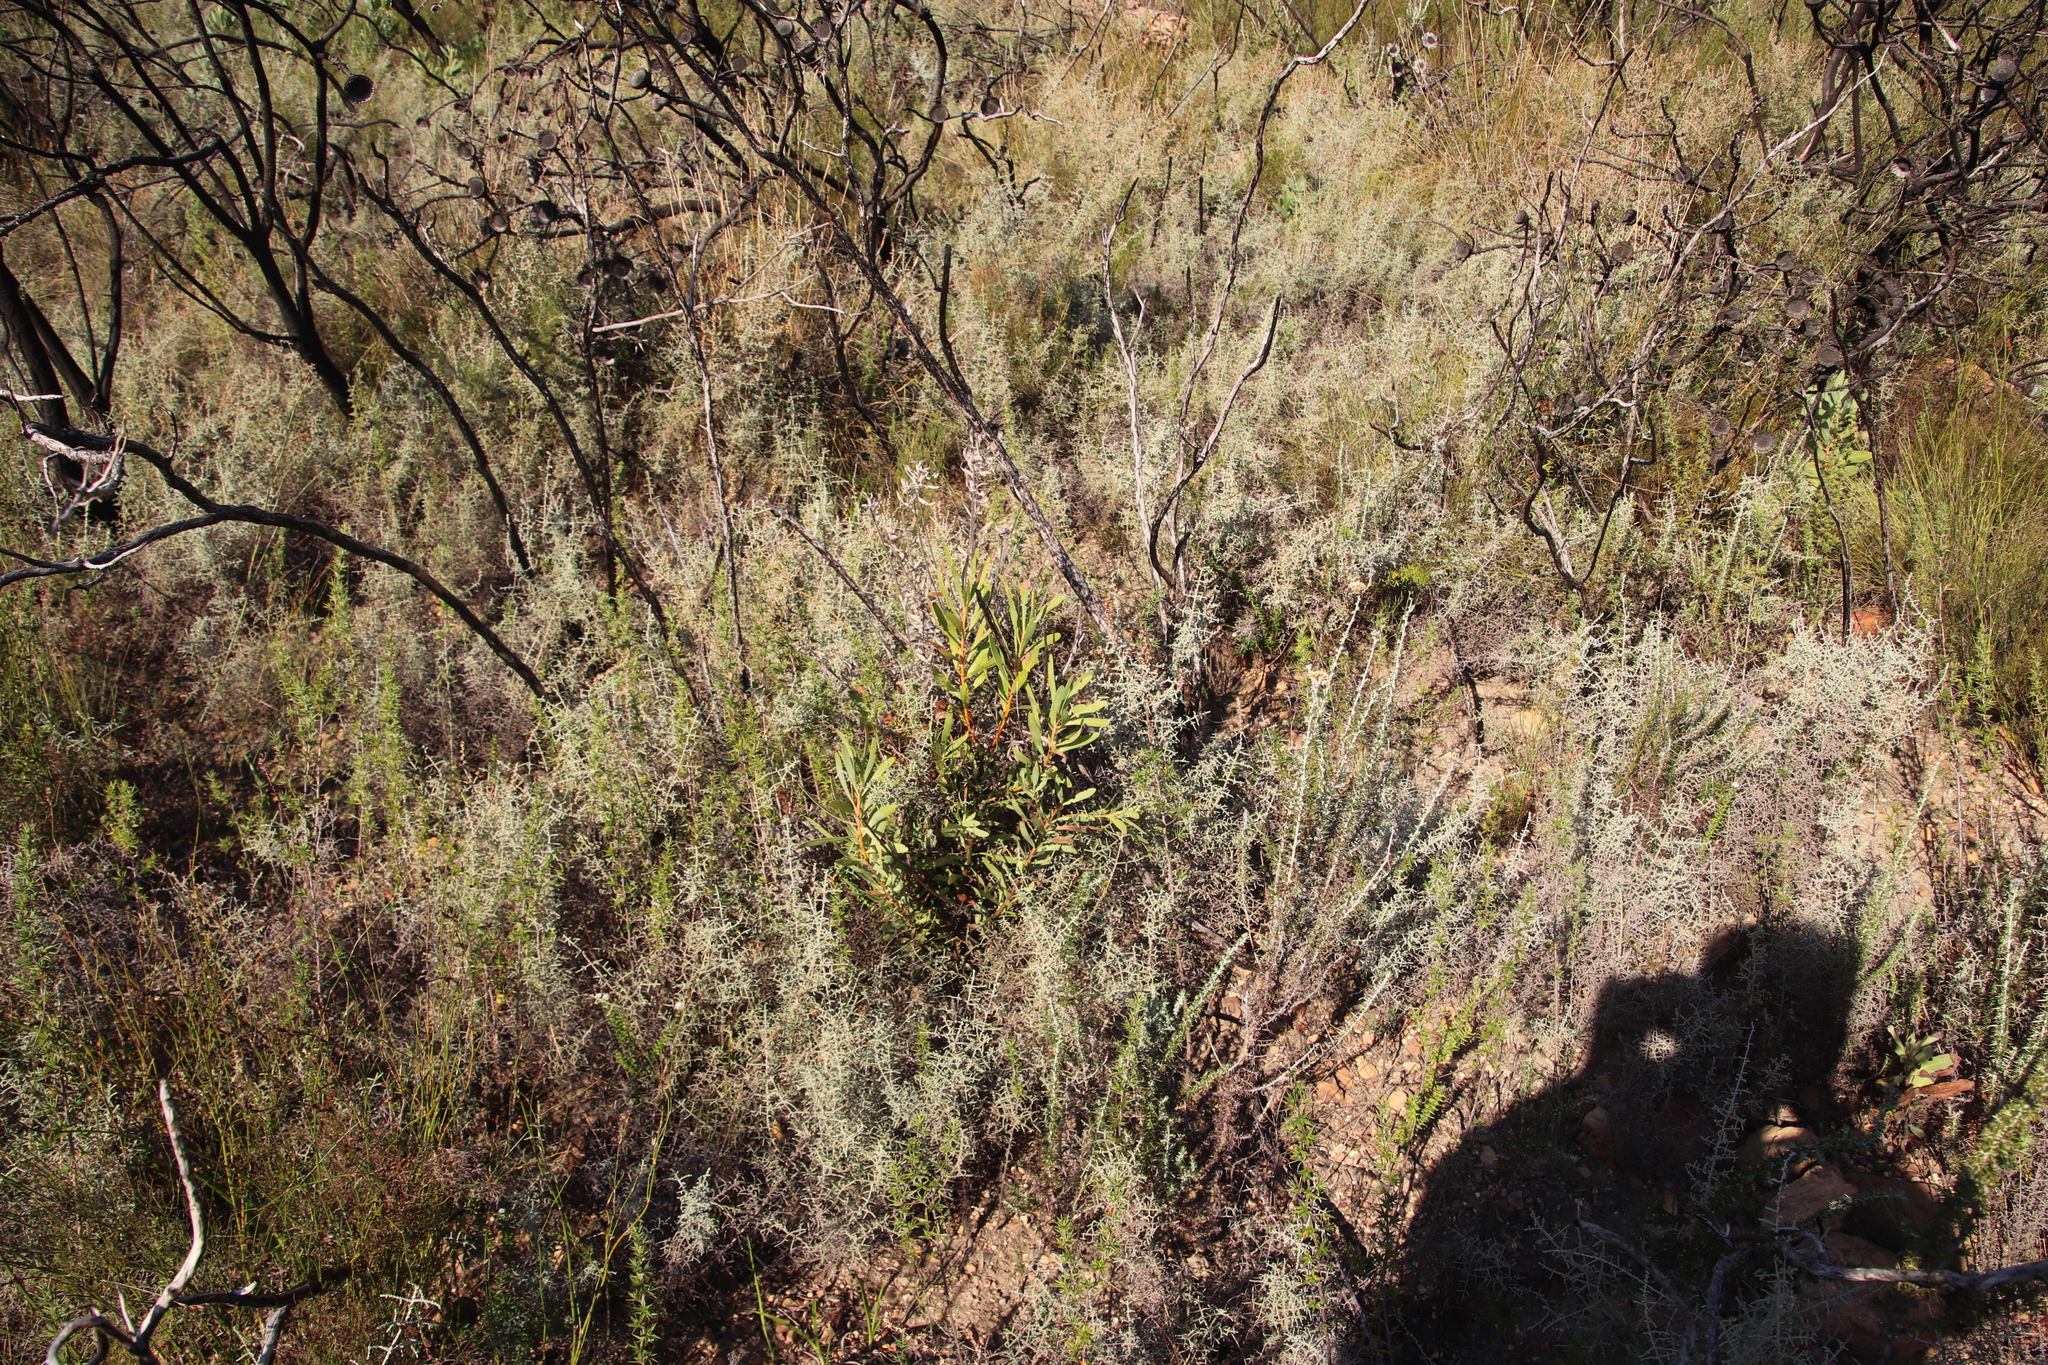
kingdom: Plantae
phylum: Tracheophyta
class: Magnoliopsida
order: Proteales
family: Proteaceae
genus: Protea
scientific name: Protea repens
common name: Sugarbush
